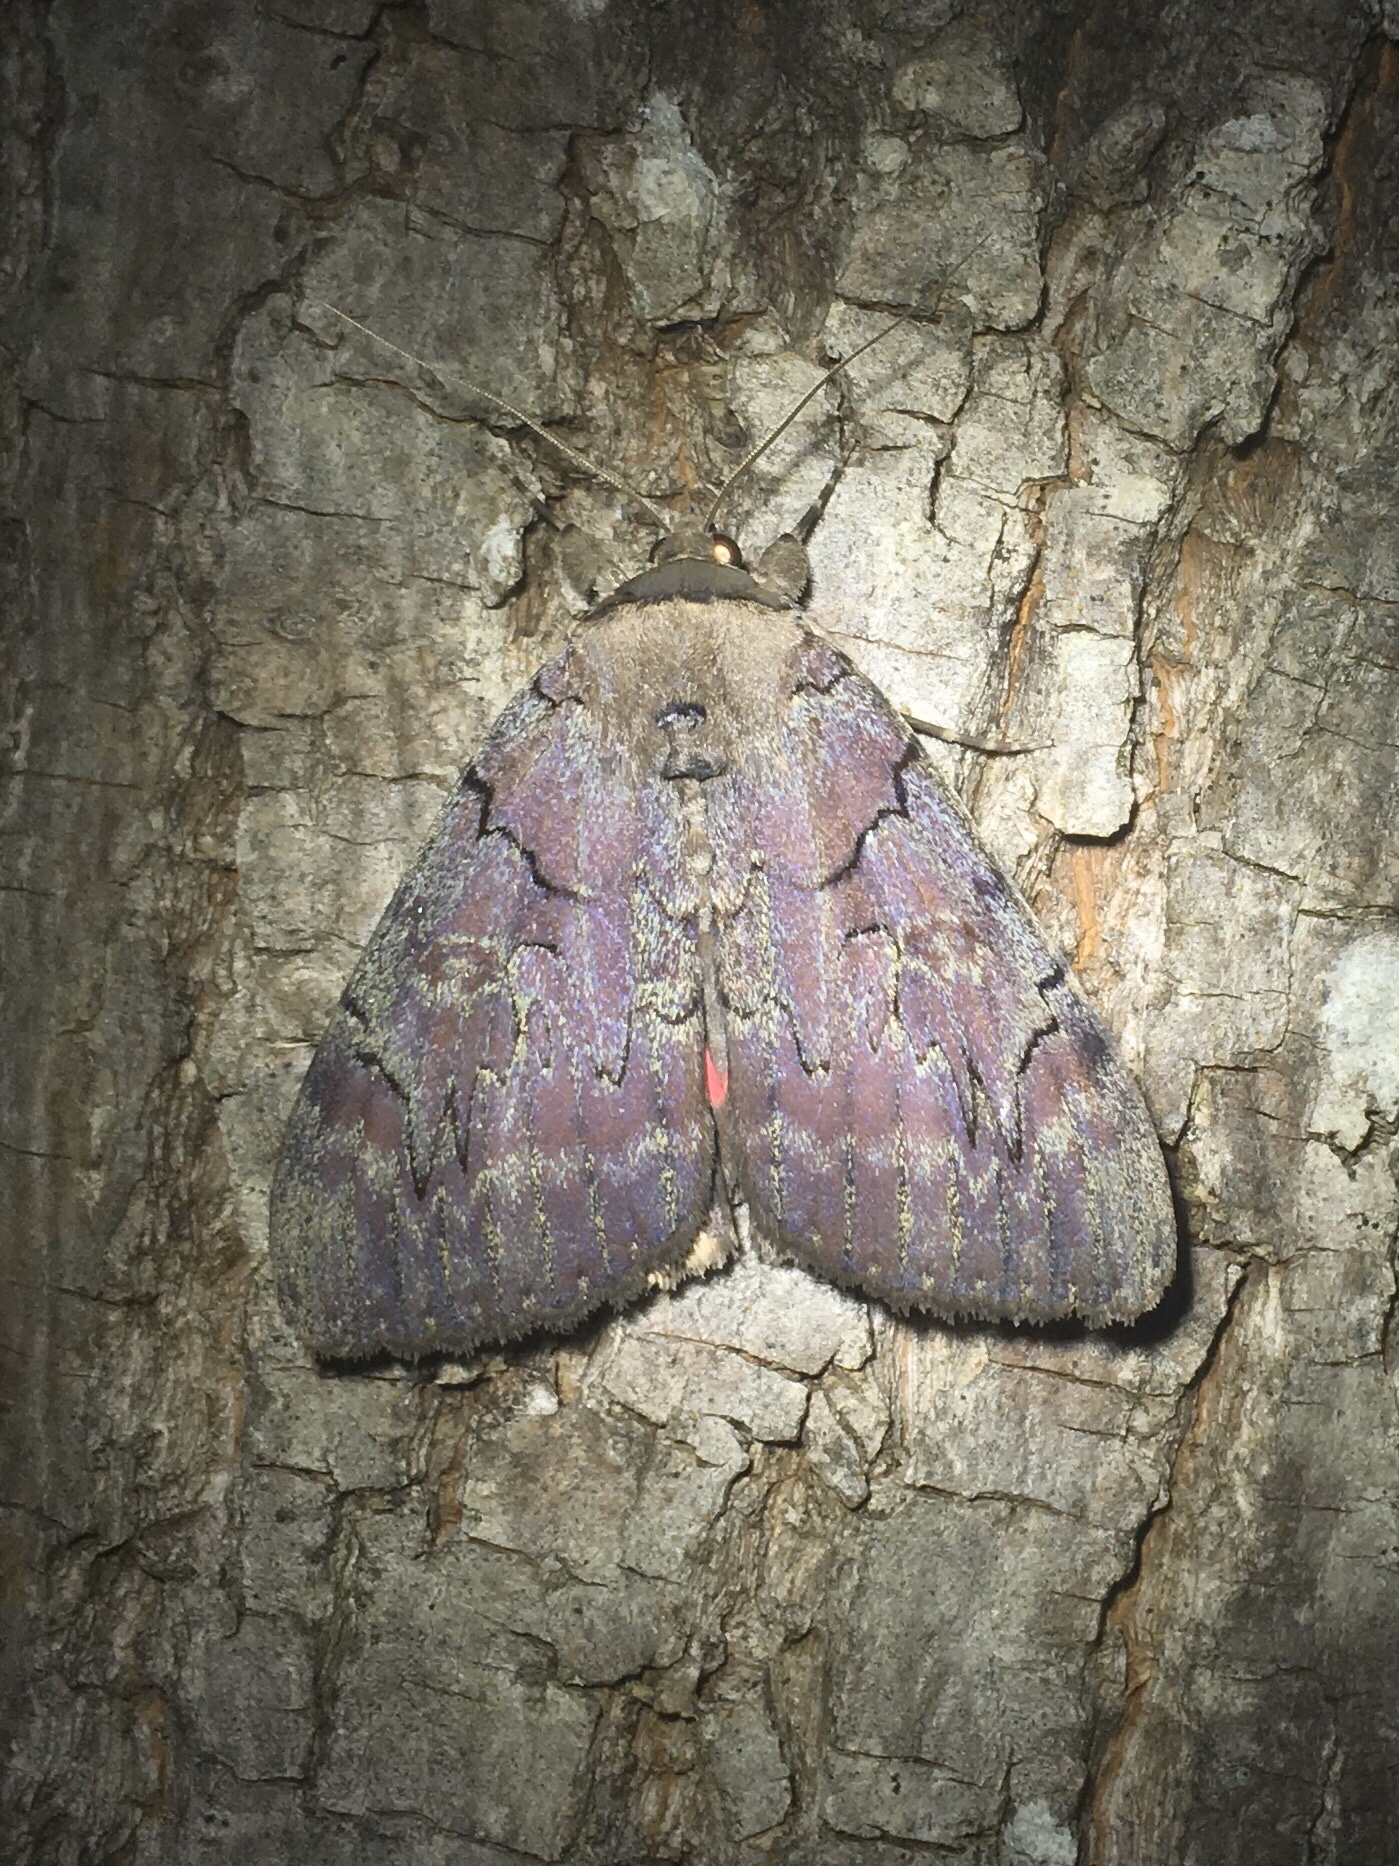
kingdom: Animalia
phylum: Arthropoda
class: Insecta
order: Lepidoptera
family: Erebidae
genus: Catocala
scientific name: Catocala cara
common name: Darling underwing
